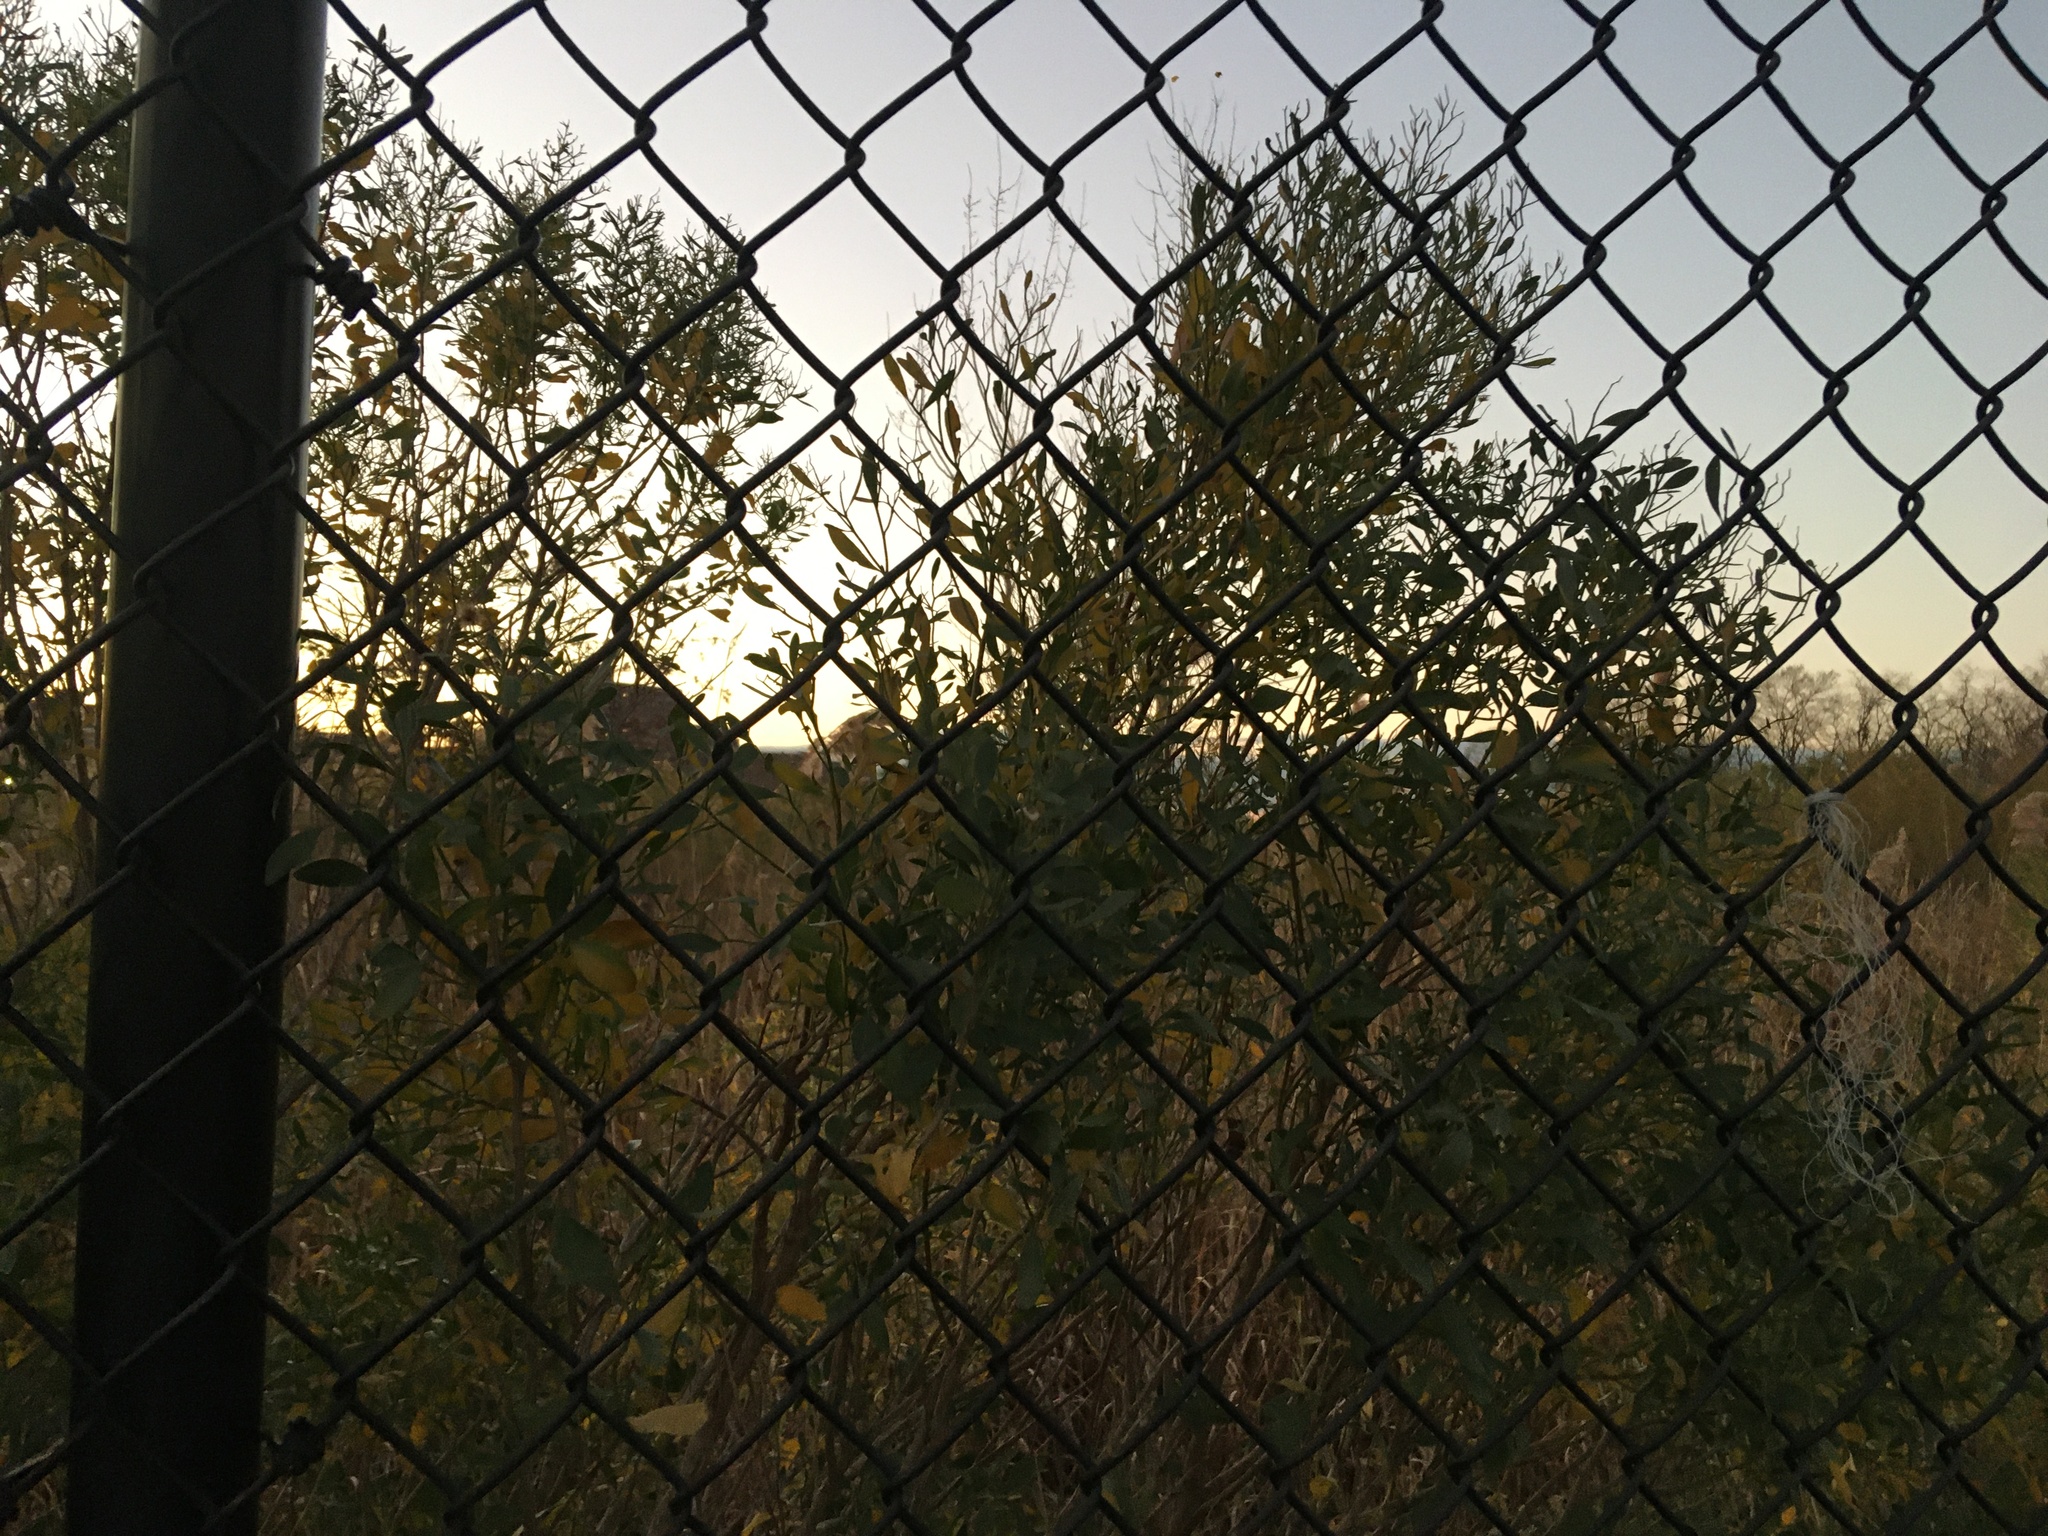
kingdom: Plantae
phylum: Tracheophyta
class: Magnoliopsida
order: Asterales
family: Asteraceae
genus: Baccharis
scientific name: Baccharis halimifolia
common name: Eastern baccharis
